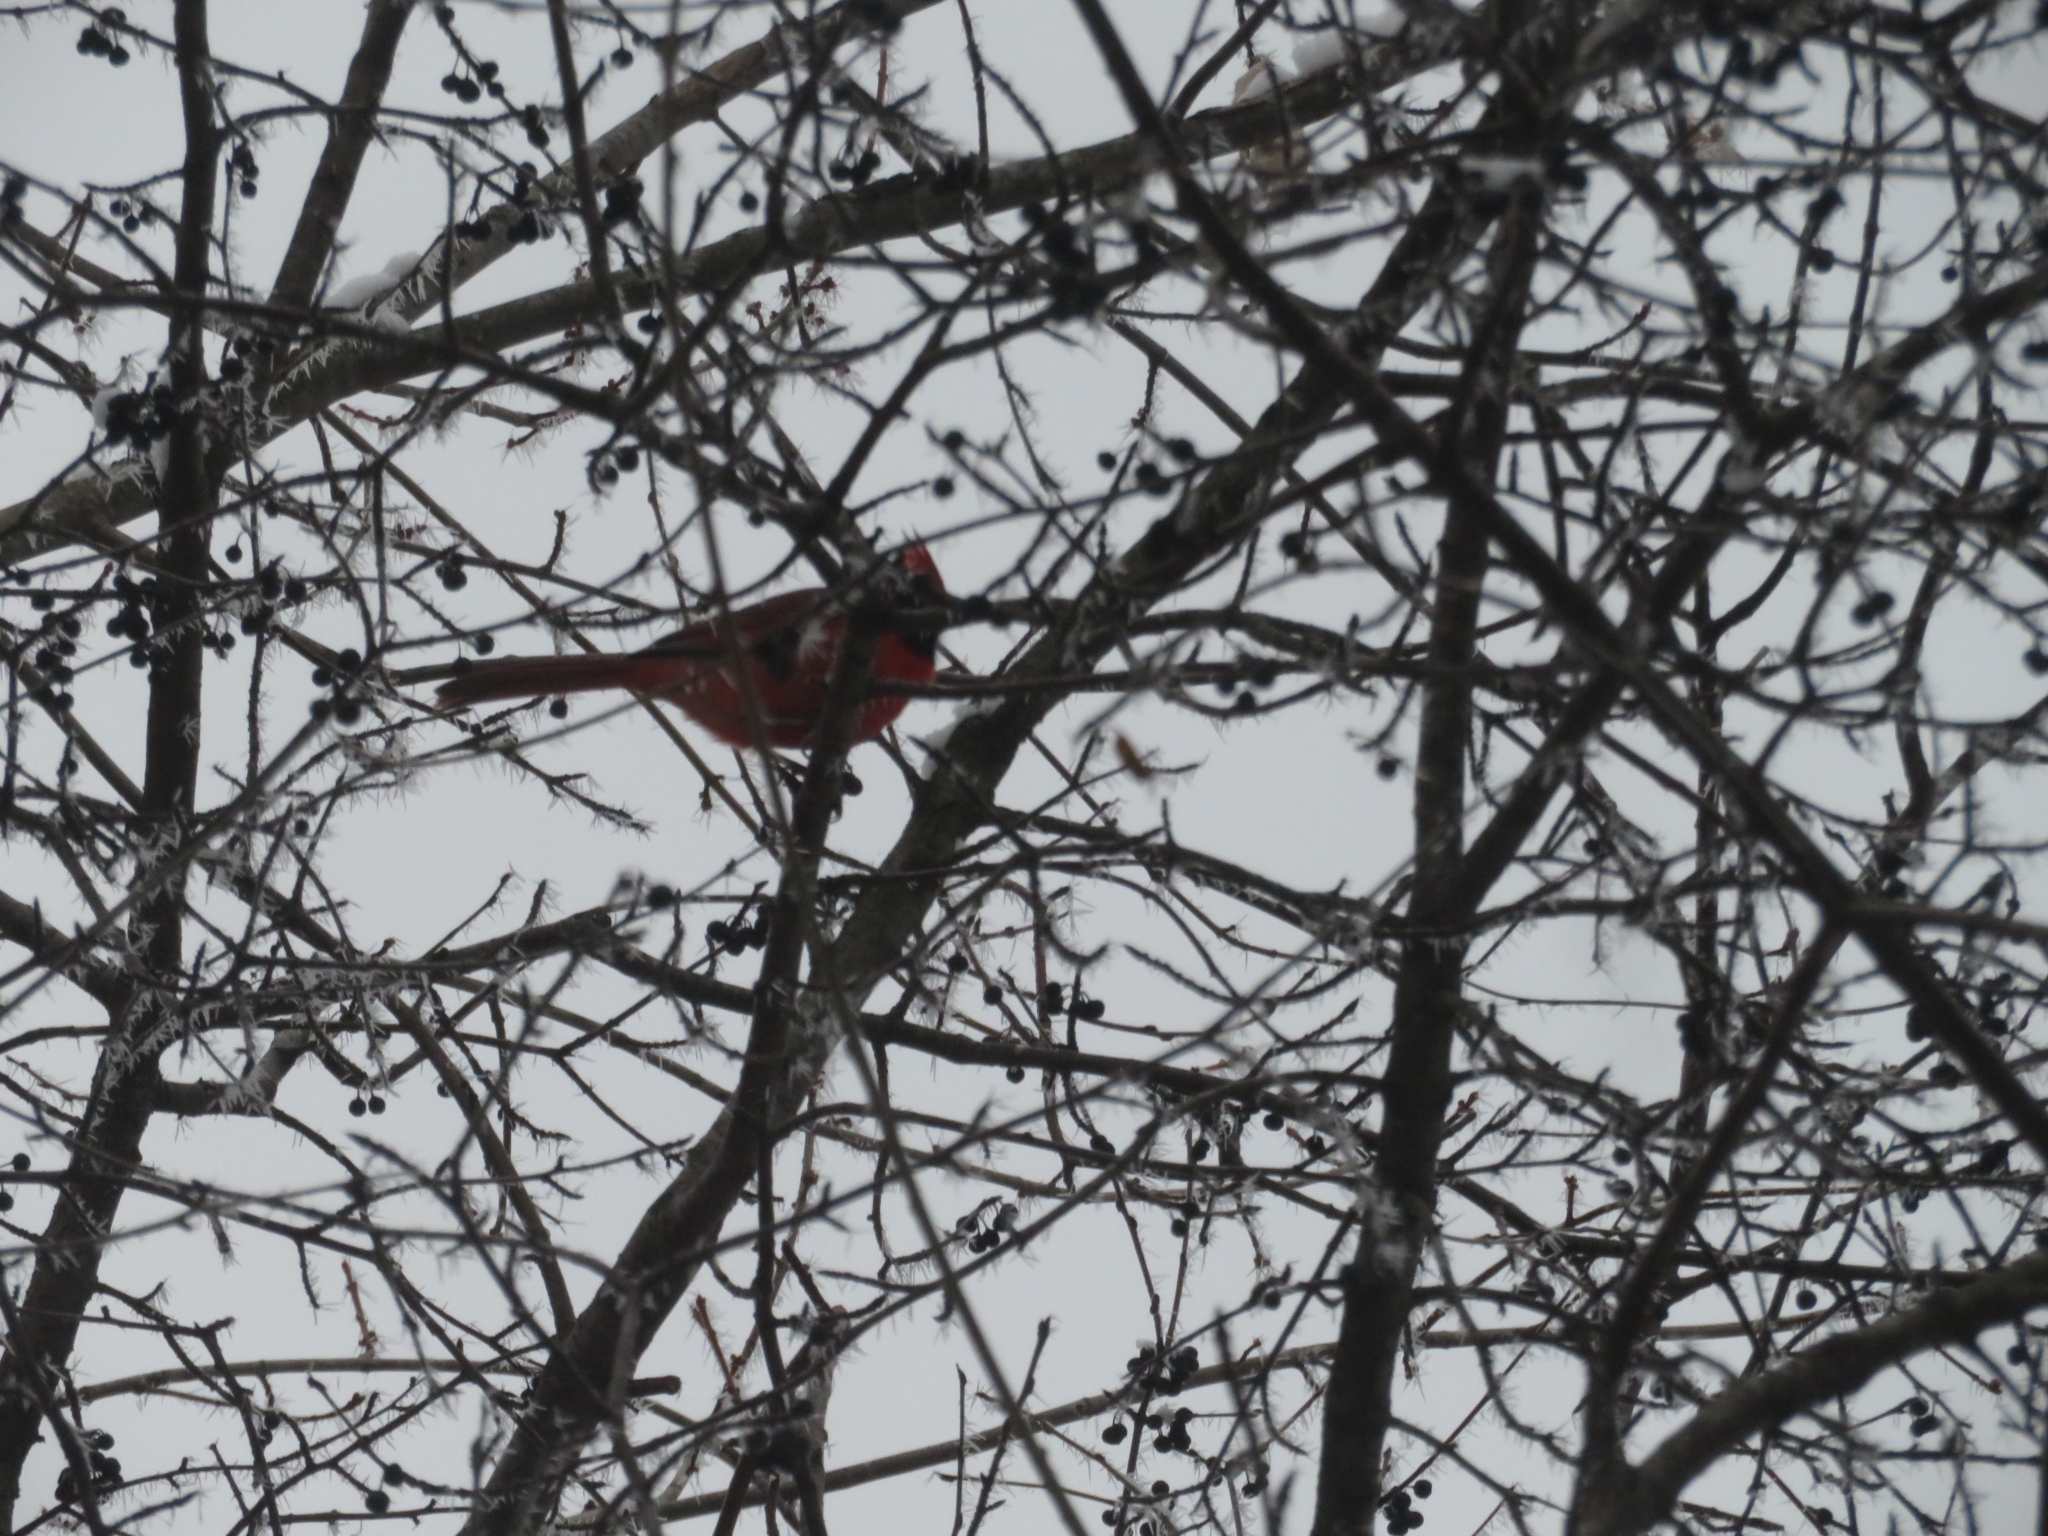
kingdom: Animalia
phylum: Chordata
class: Aves
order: Passeriformes
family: Cardinalidae
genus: Cardinalis
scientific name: Cardinalis cardinalis
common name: Northern cardinal
